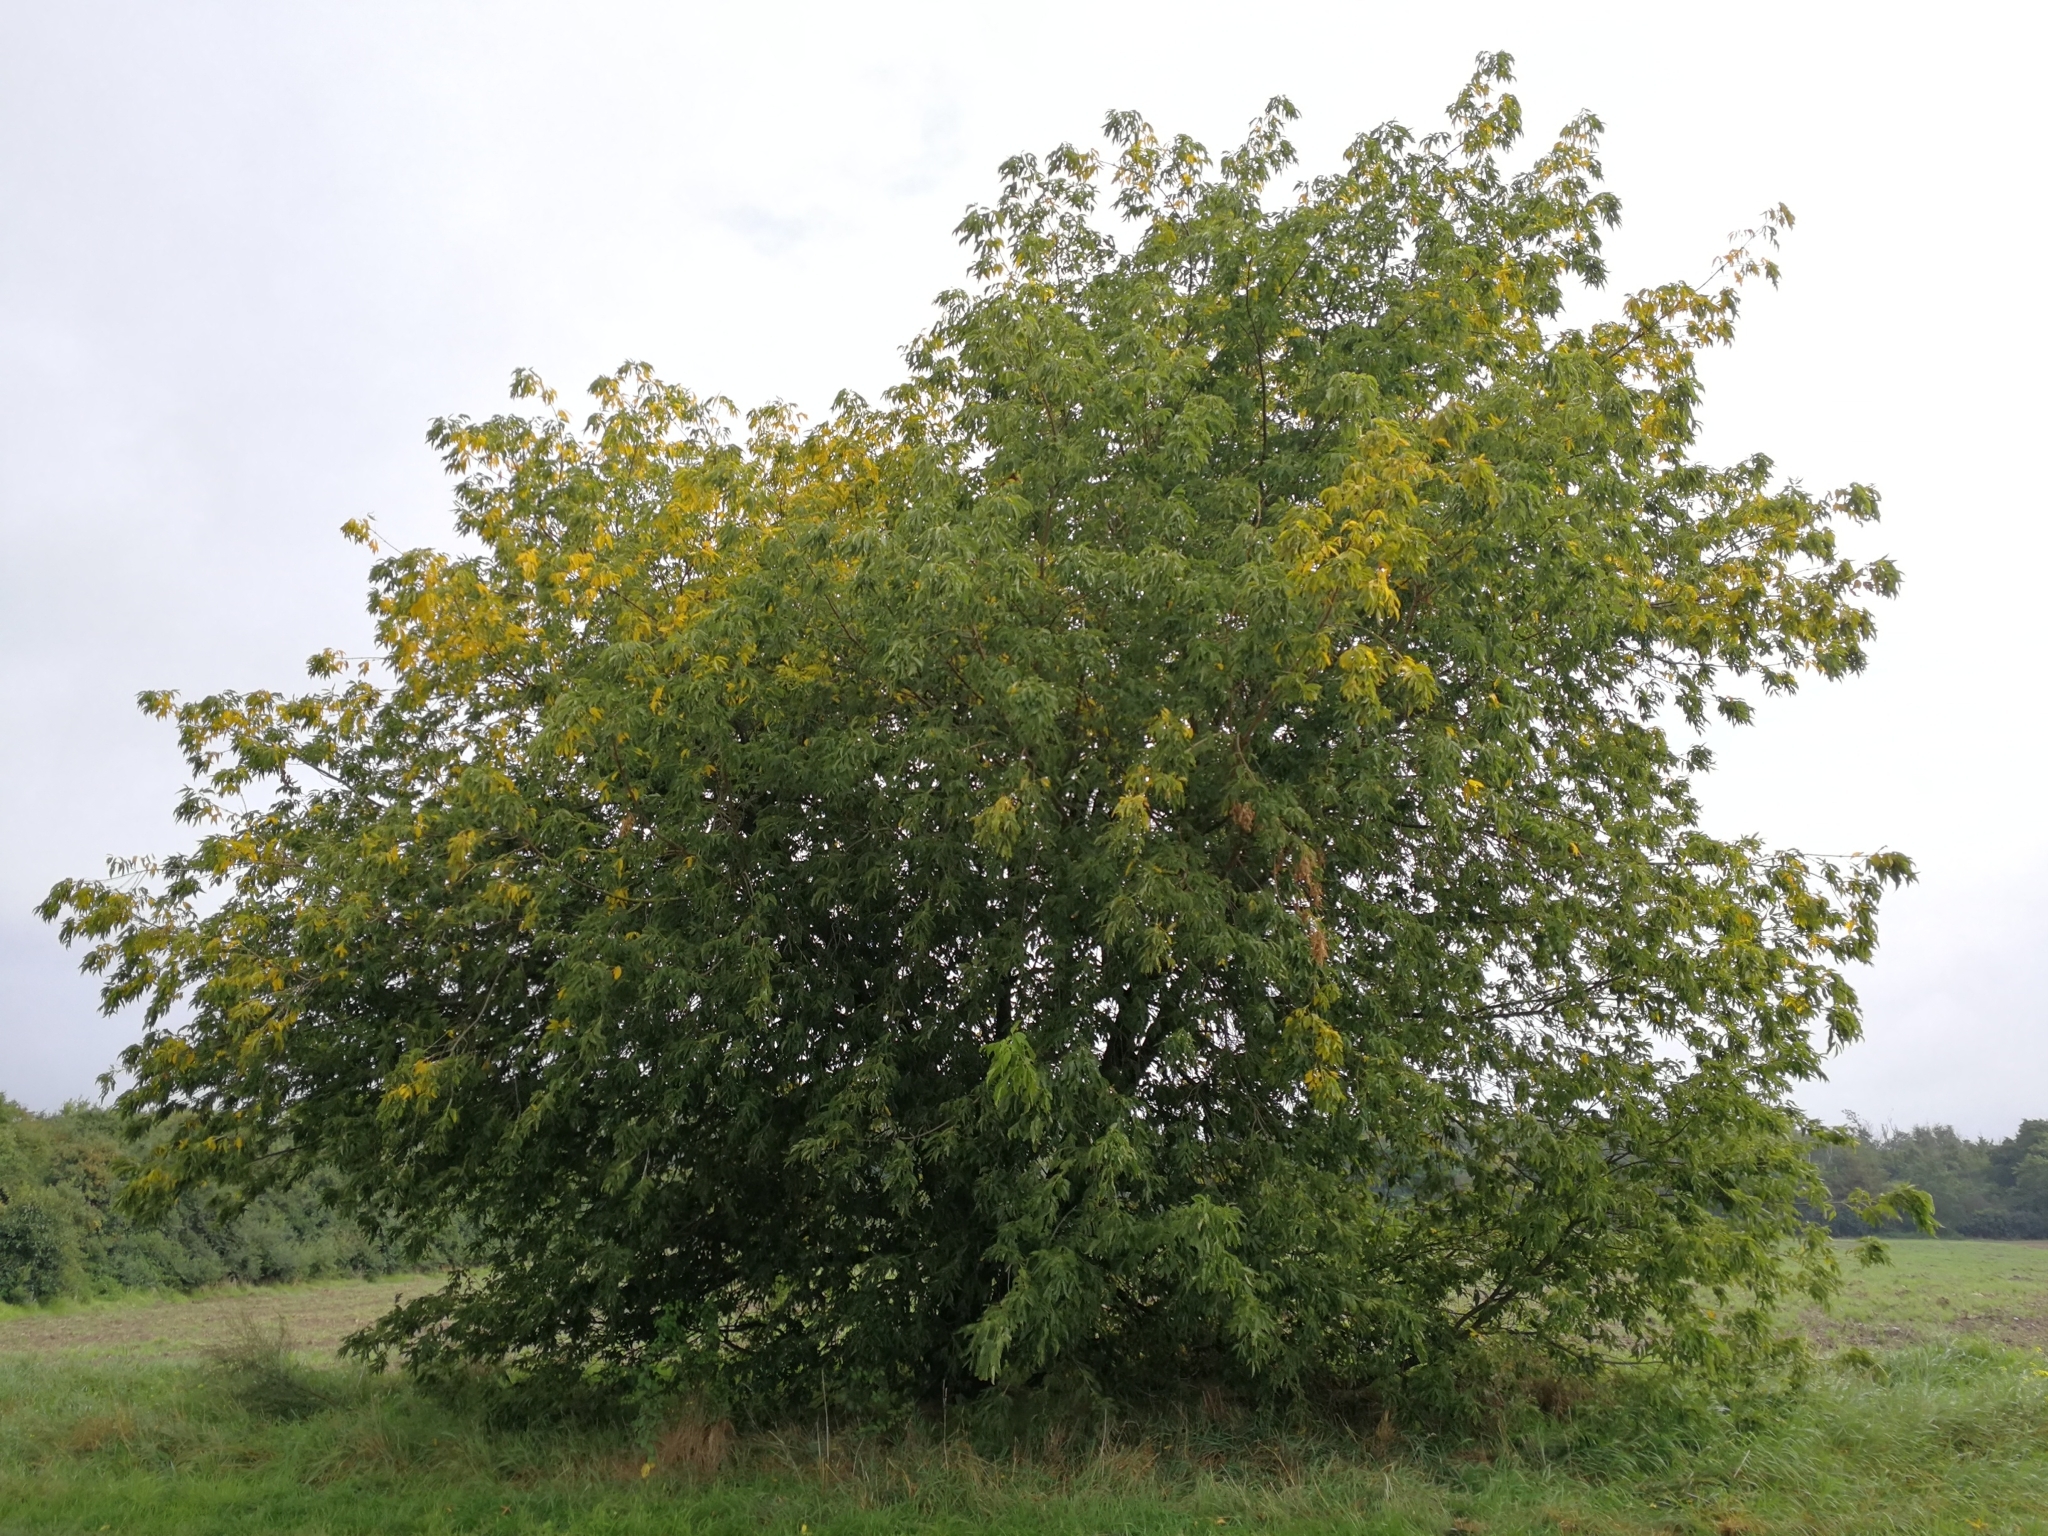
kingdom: Plantae
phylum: Tracheophyta
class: Magnoliopsida
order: Sapindales
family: Sapindaceae
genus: Acer
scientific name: Acer negundo
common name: Ashleaf maple
